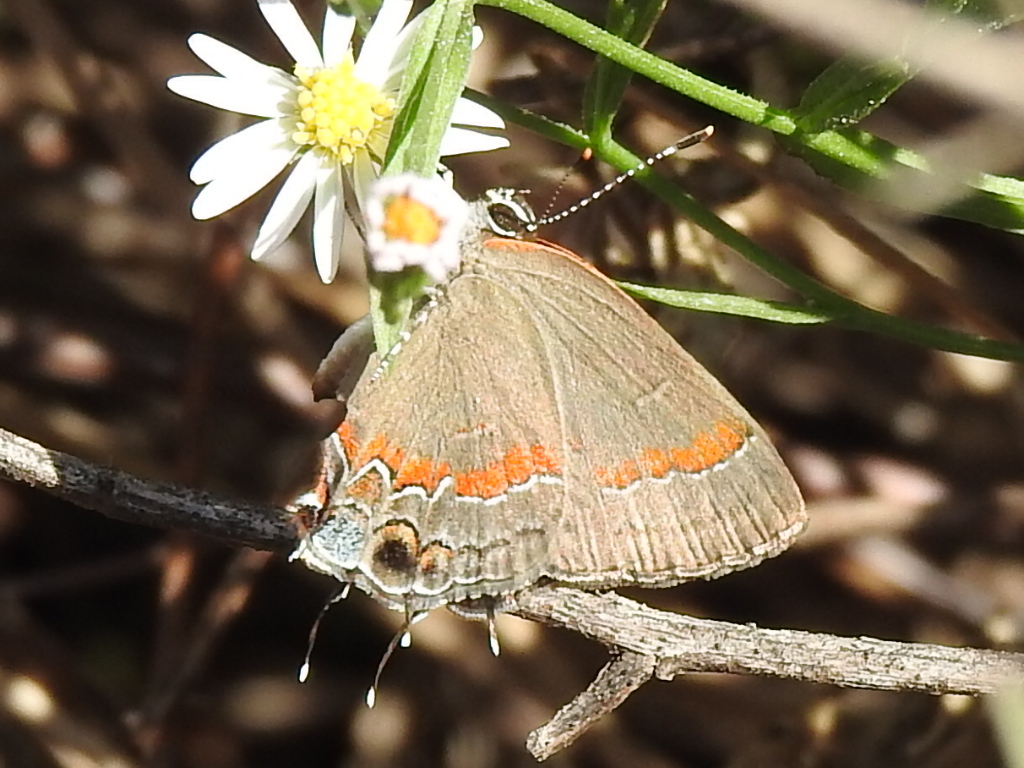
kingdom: Animalia
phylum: Arthropoda
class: Insecta
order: Lepidoptera
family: Lycaenidae
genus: Calycopis
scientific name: Calycopis cecrops
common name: Red-banded hairstreak
